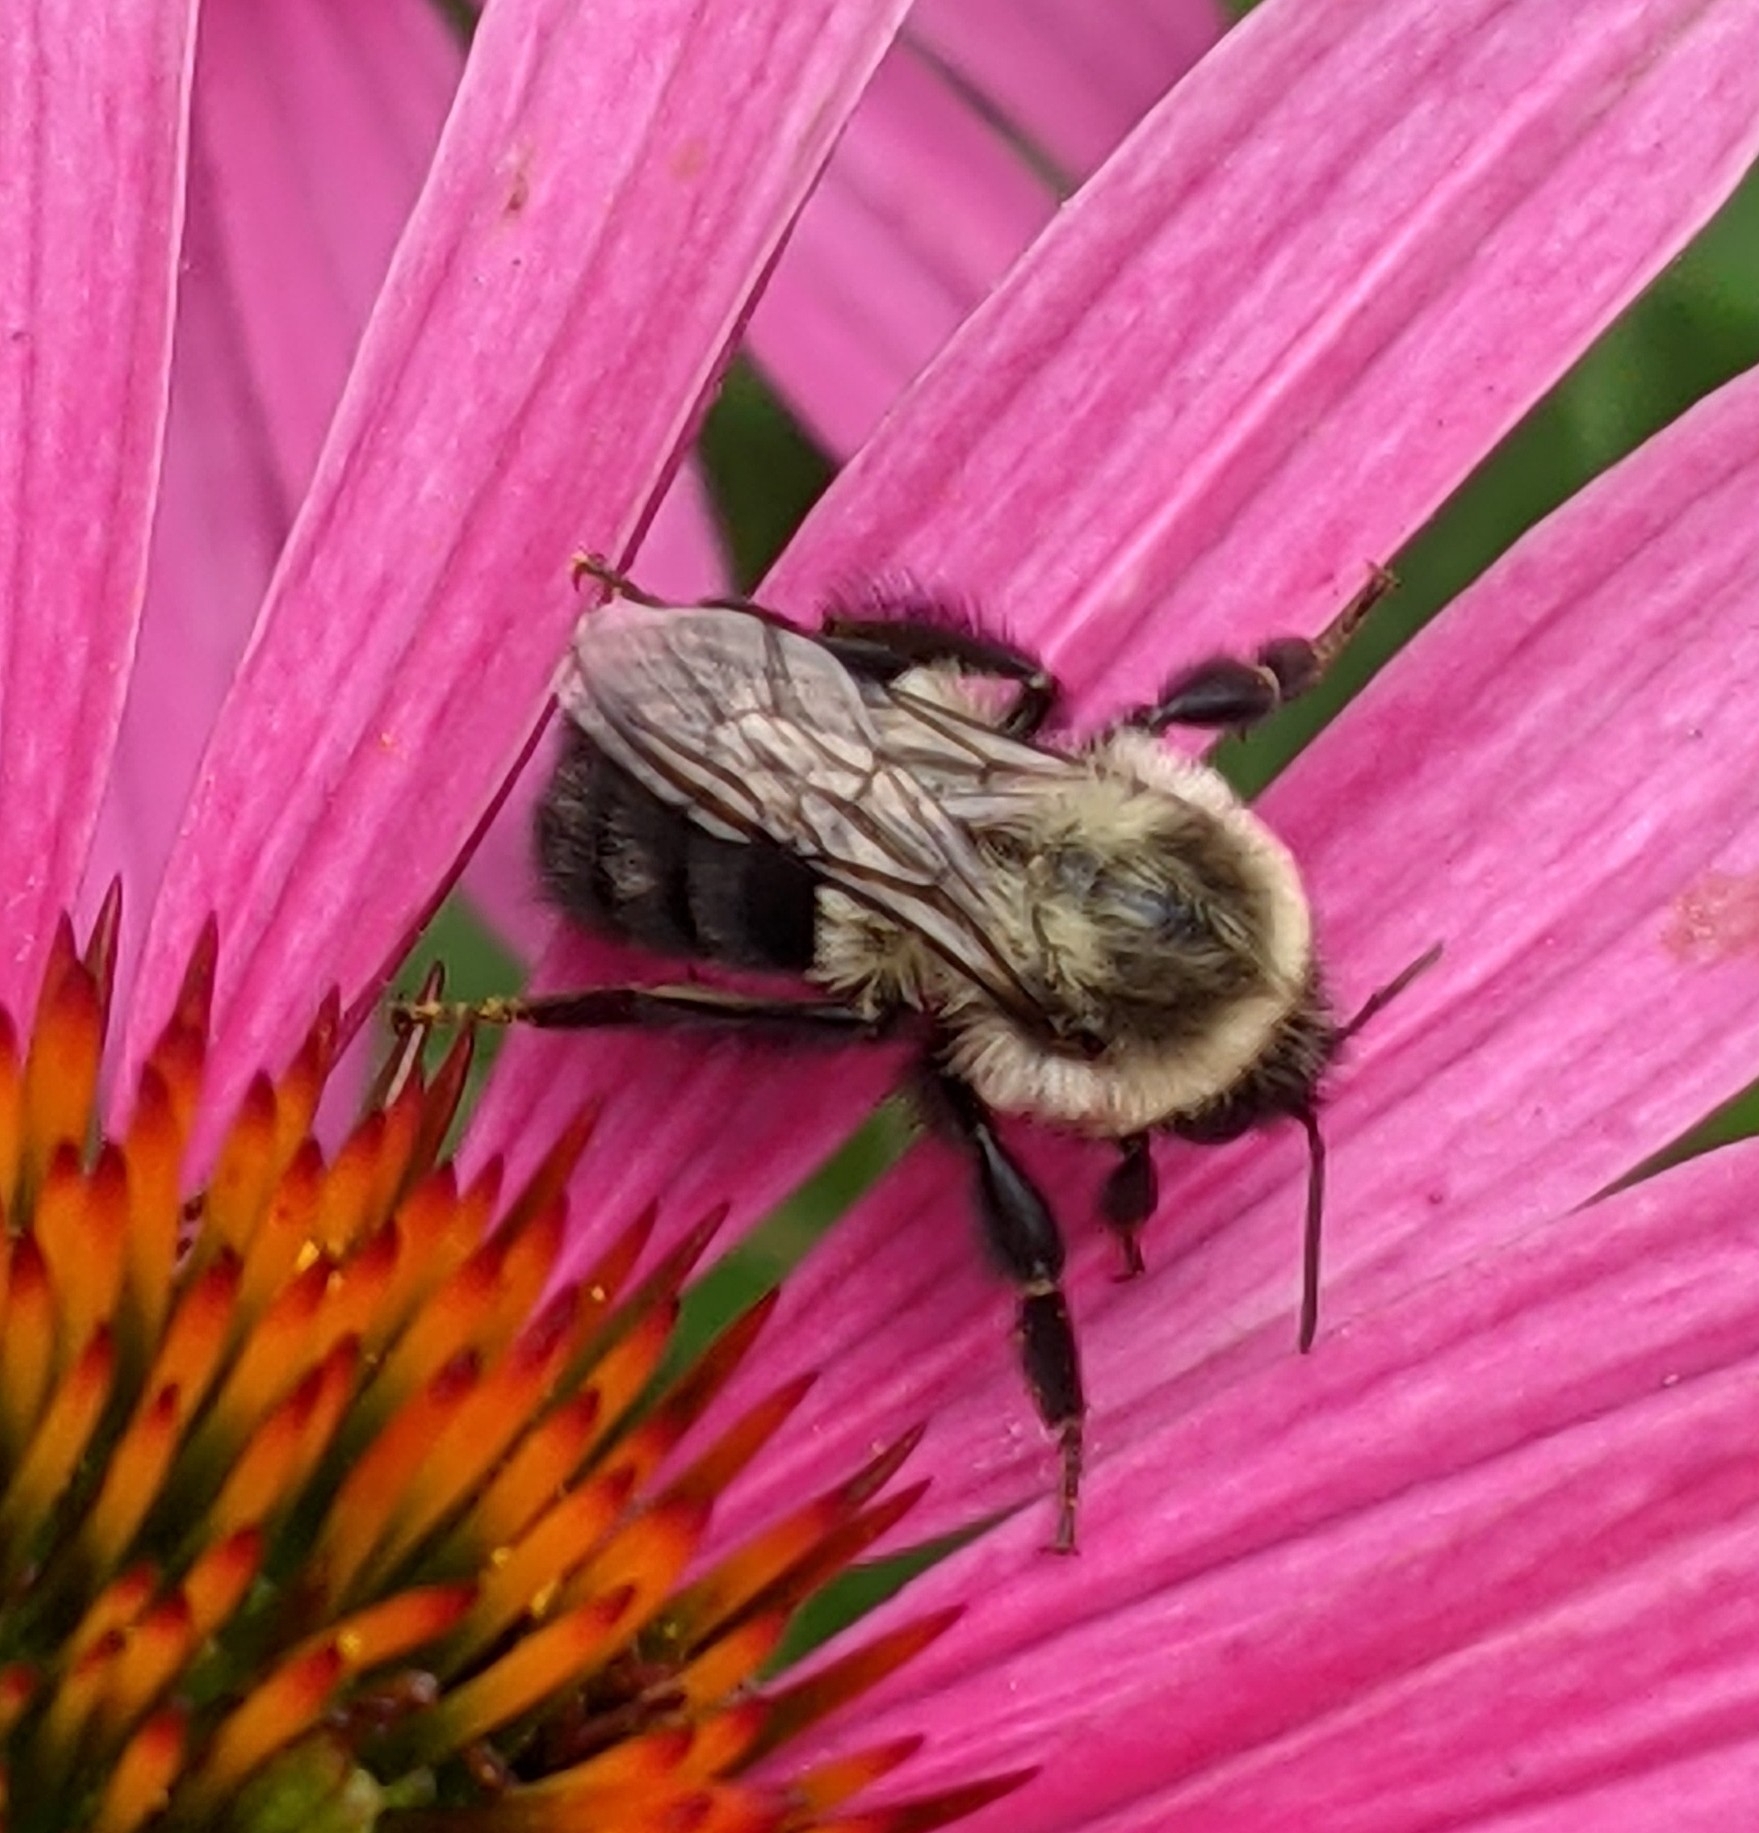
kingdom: Animalia
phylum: Arthropoda
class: Insecta
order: Hymenoptera
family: Apidae
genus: Bombus
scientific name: Bombus impatiens
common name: Common eastern bumble bee
